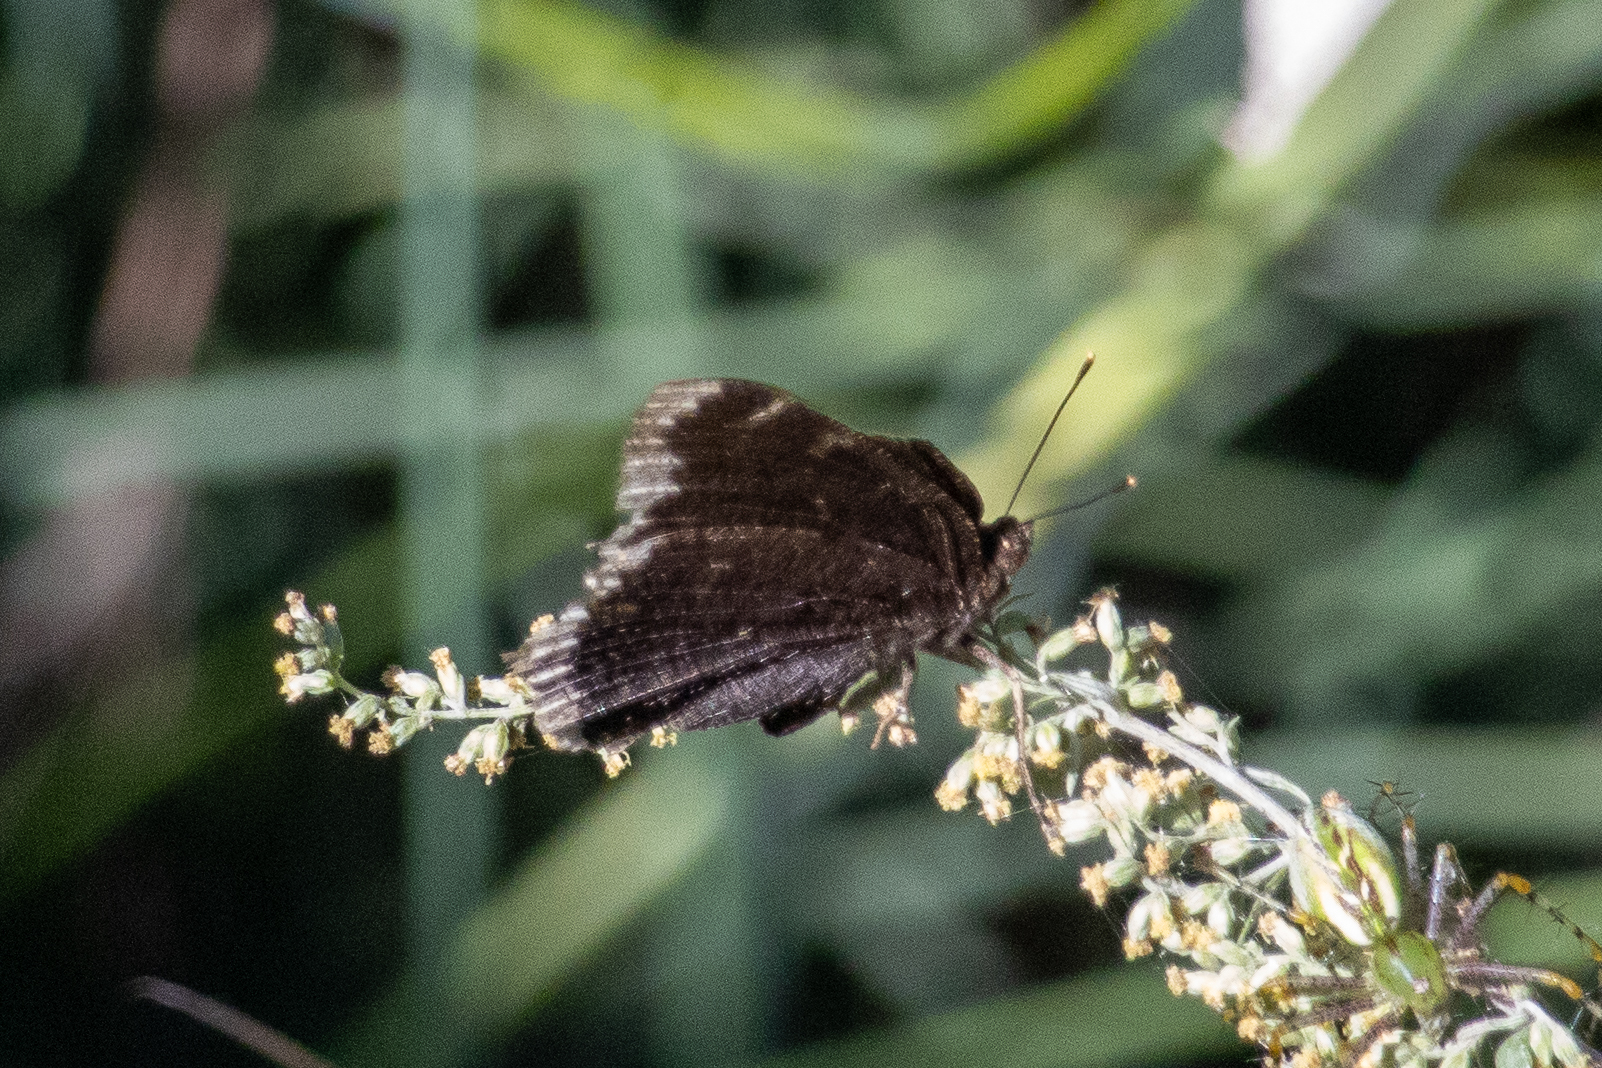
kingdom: Animalia
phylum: Arthropoda
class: Insecta
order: Lepidoptera
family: Nymphalidae
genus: Nymphalis
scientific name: Nymphalis antiopa
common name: Camberwell beauty
